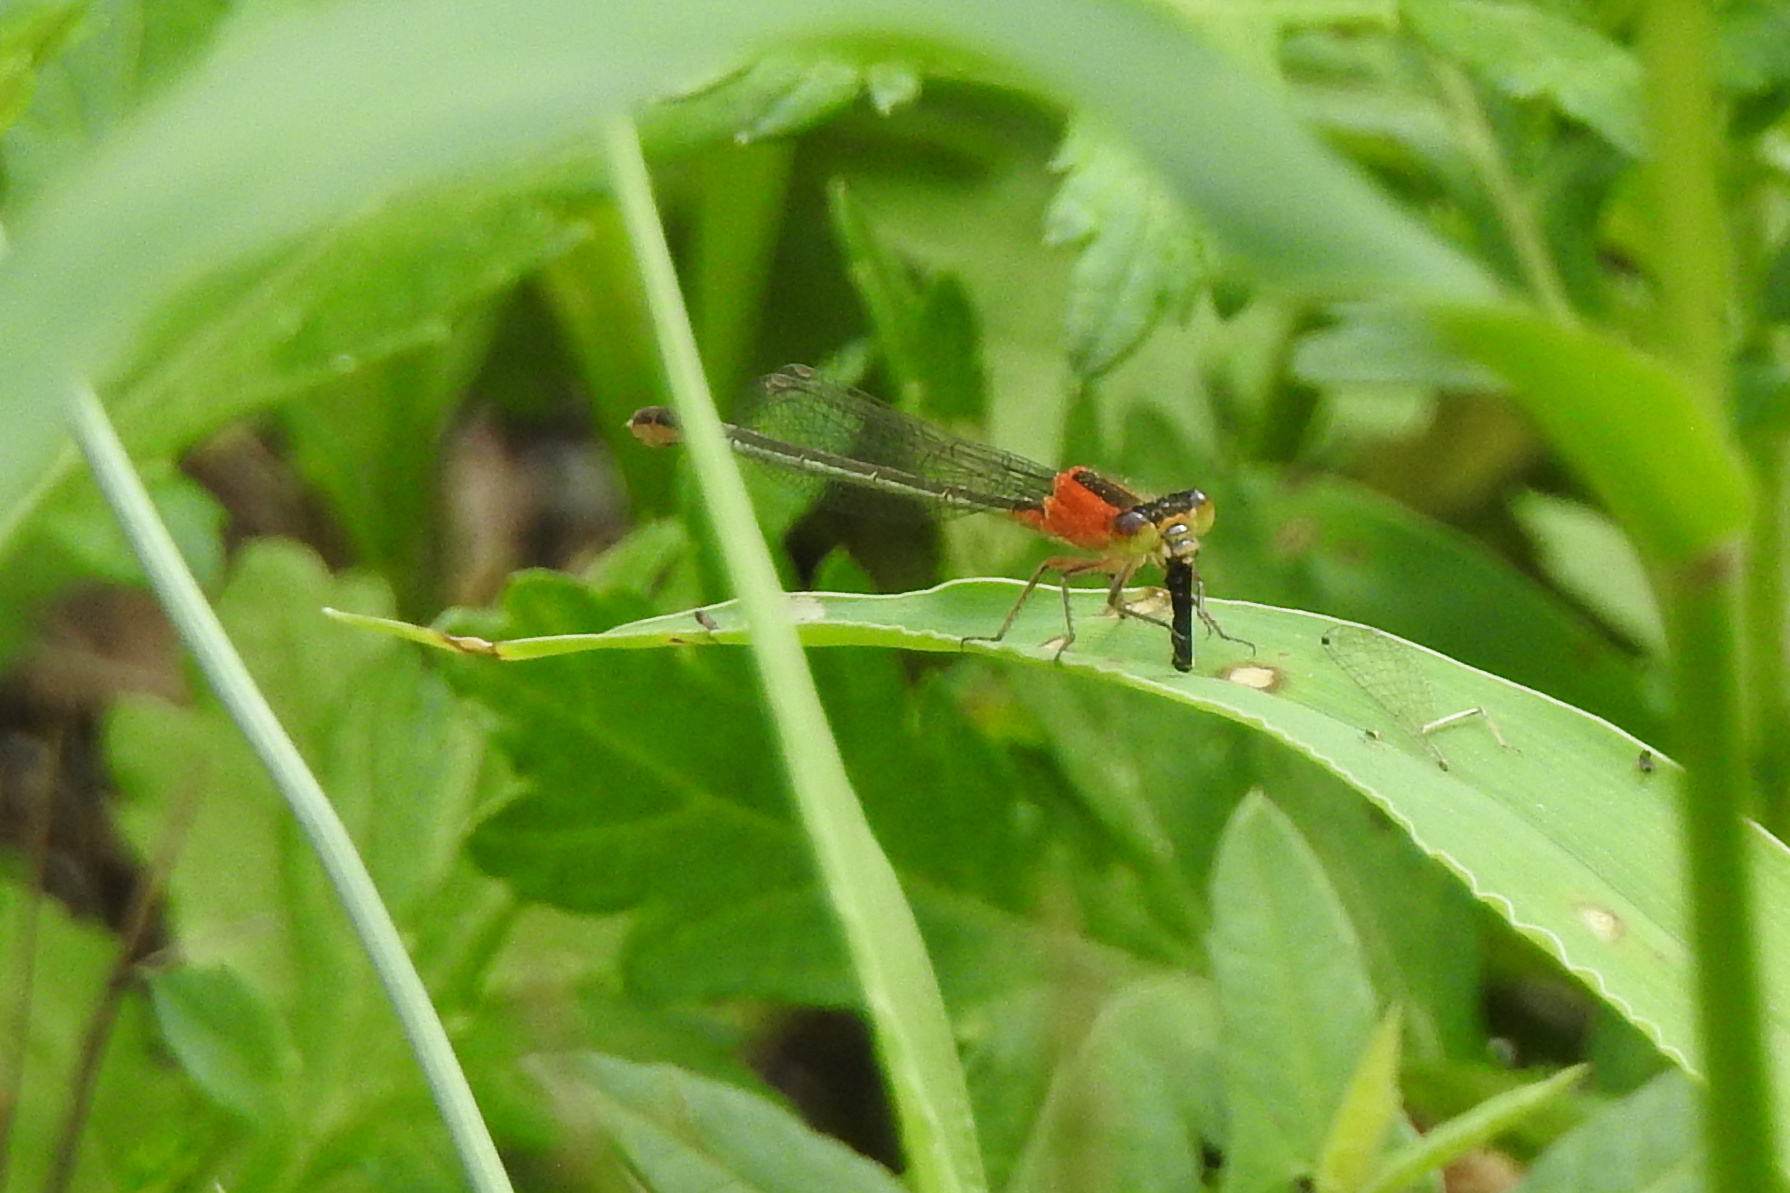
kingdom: Animalia
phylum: Arthropoda
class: Insecta
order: Odonata
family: Coenagrionidae
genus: Ischnura
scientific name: Ischnura ramburii
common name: Rambur's forktail
